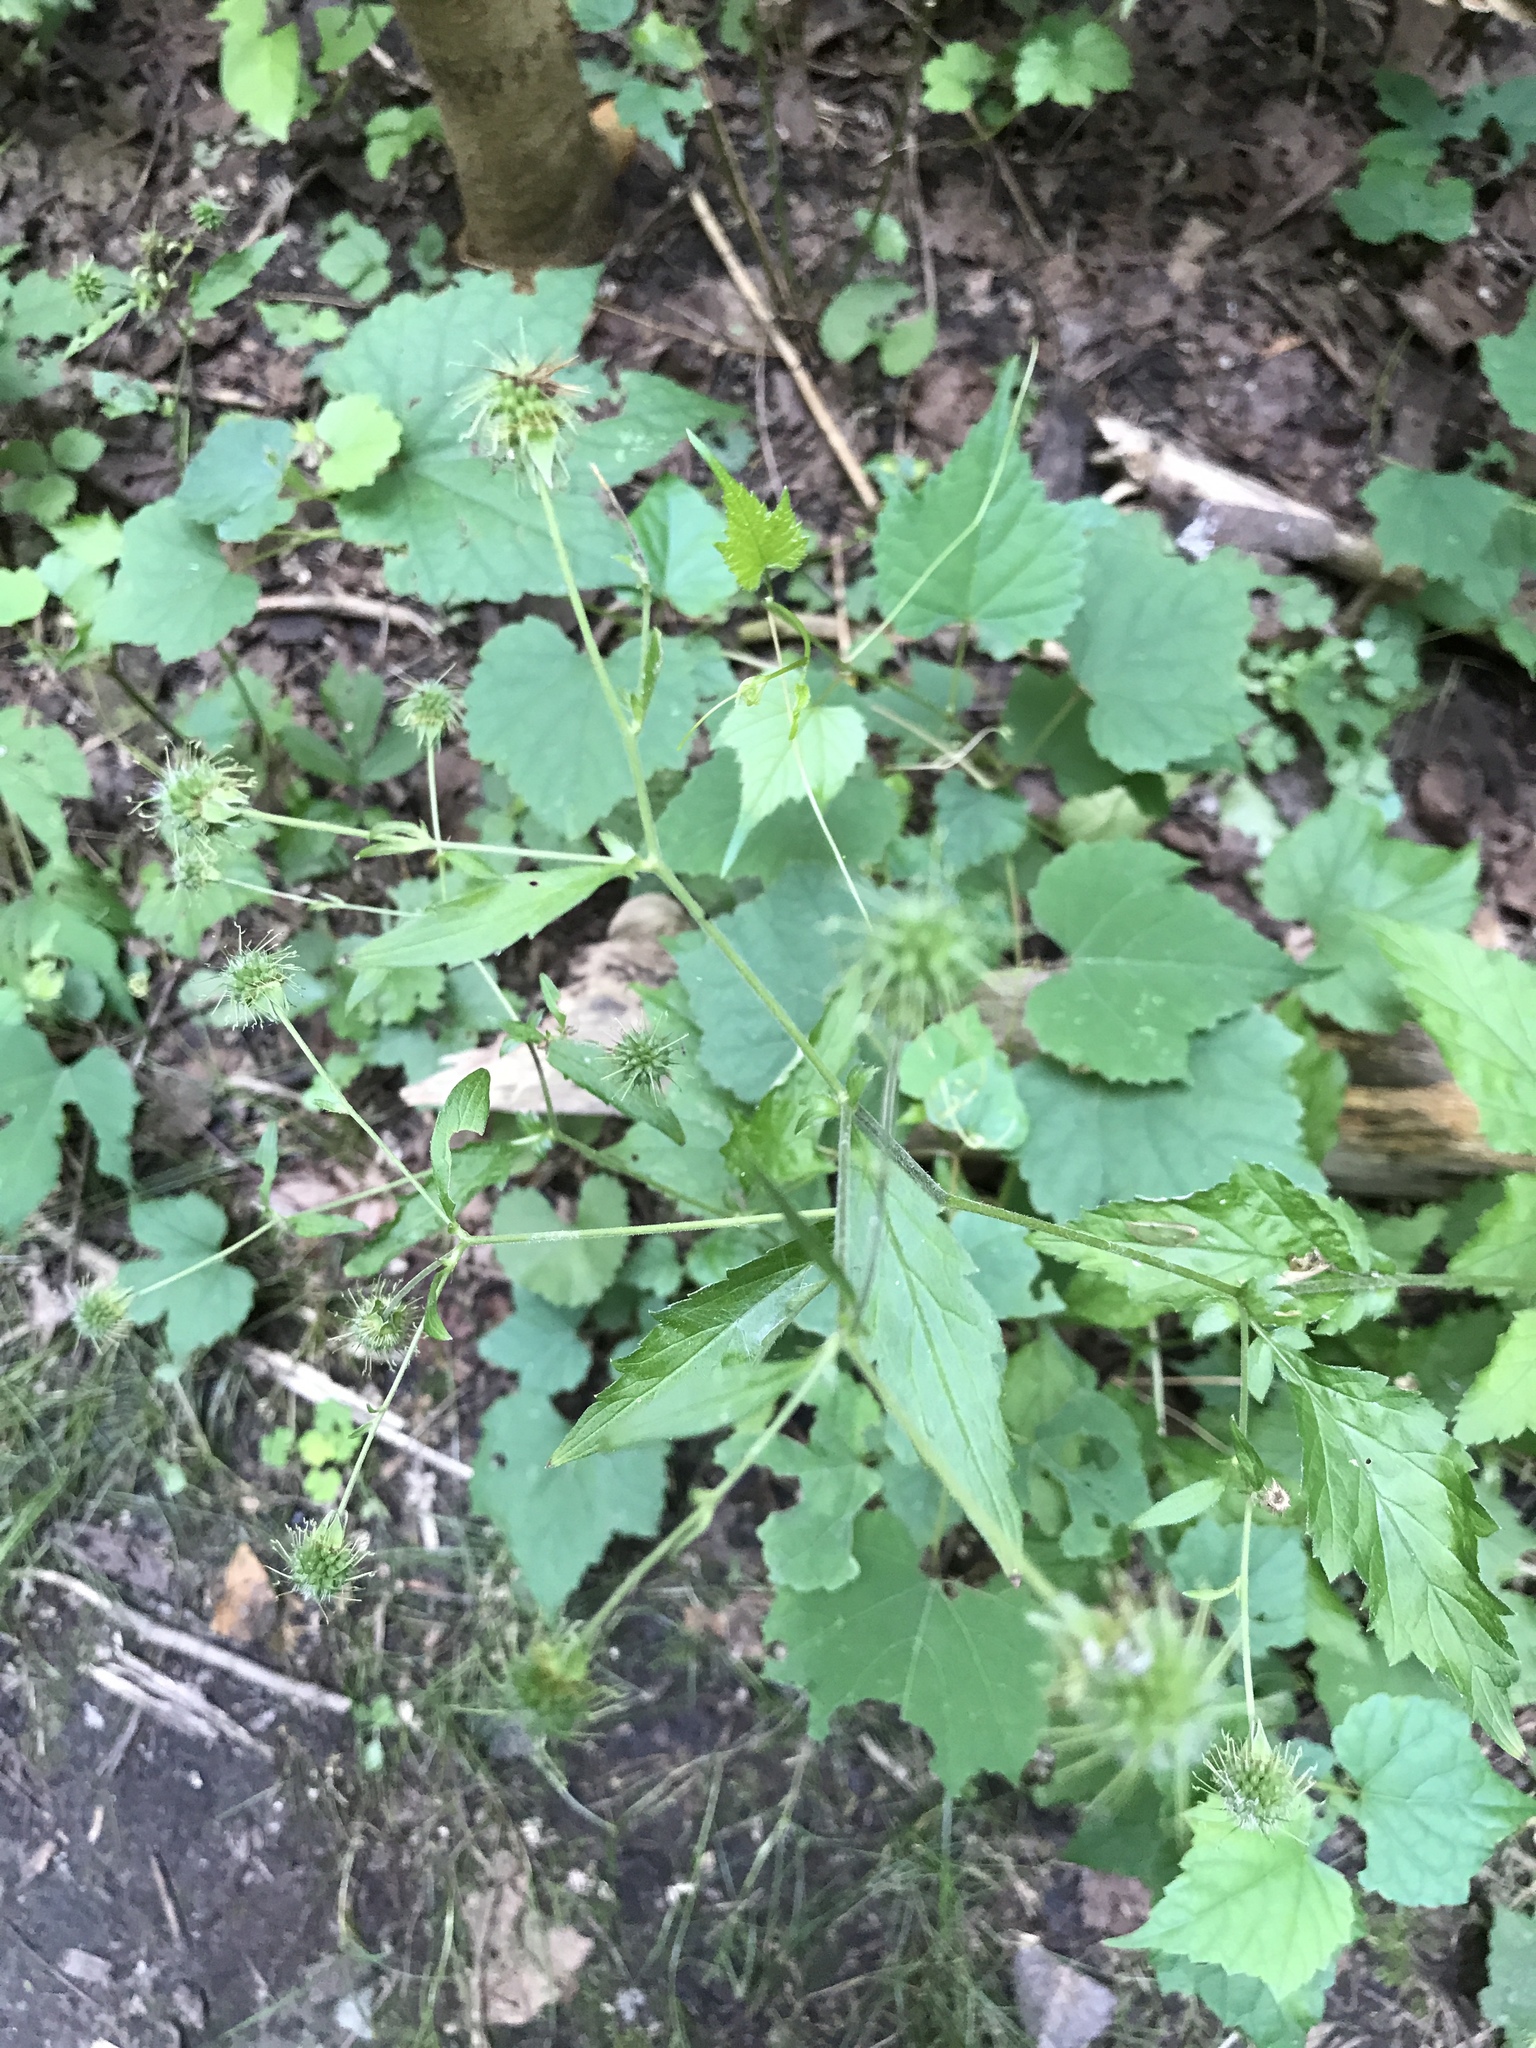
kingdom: Plantae
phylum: Tracheophyta
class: Magnoliopsida
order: Rosales
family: Rosaceae
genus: Geum
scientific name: Geum canadense
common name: White avens
